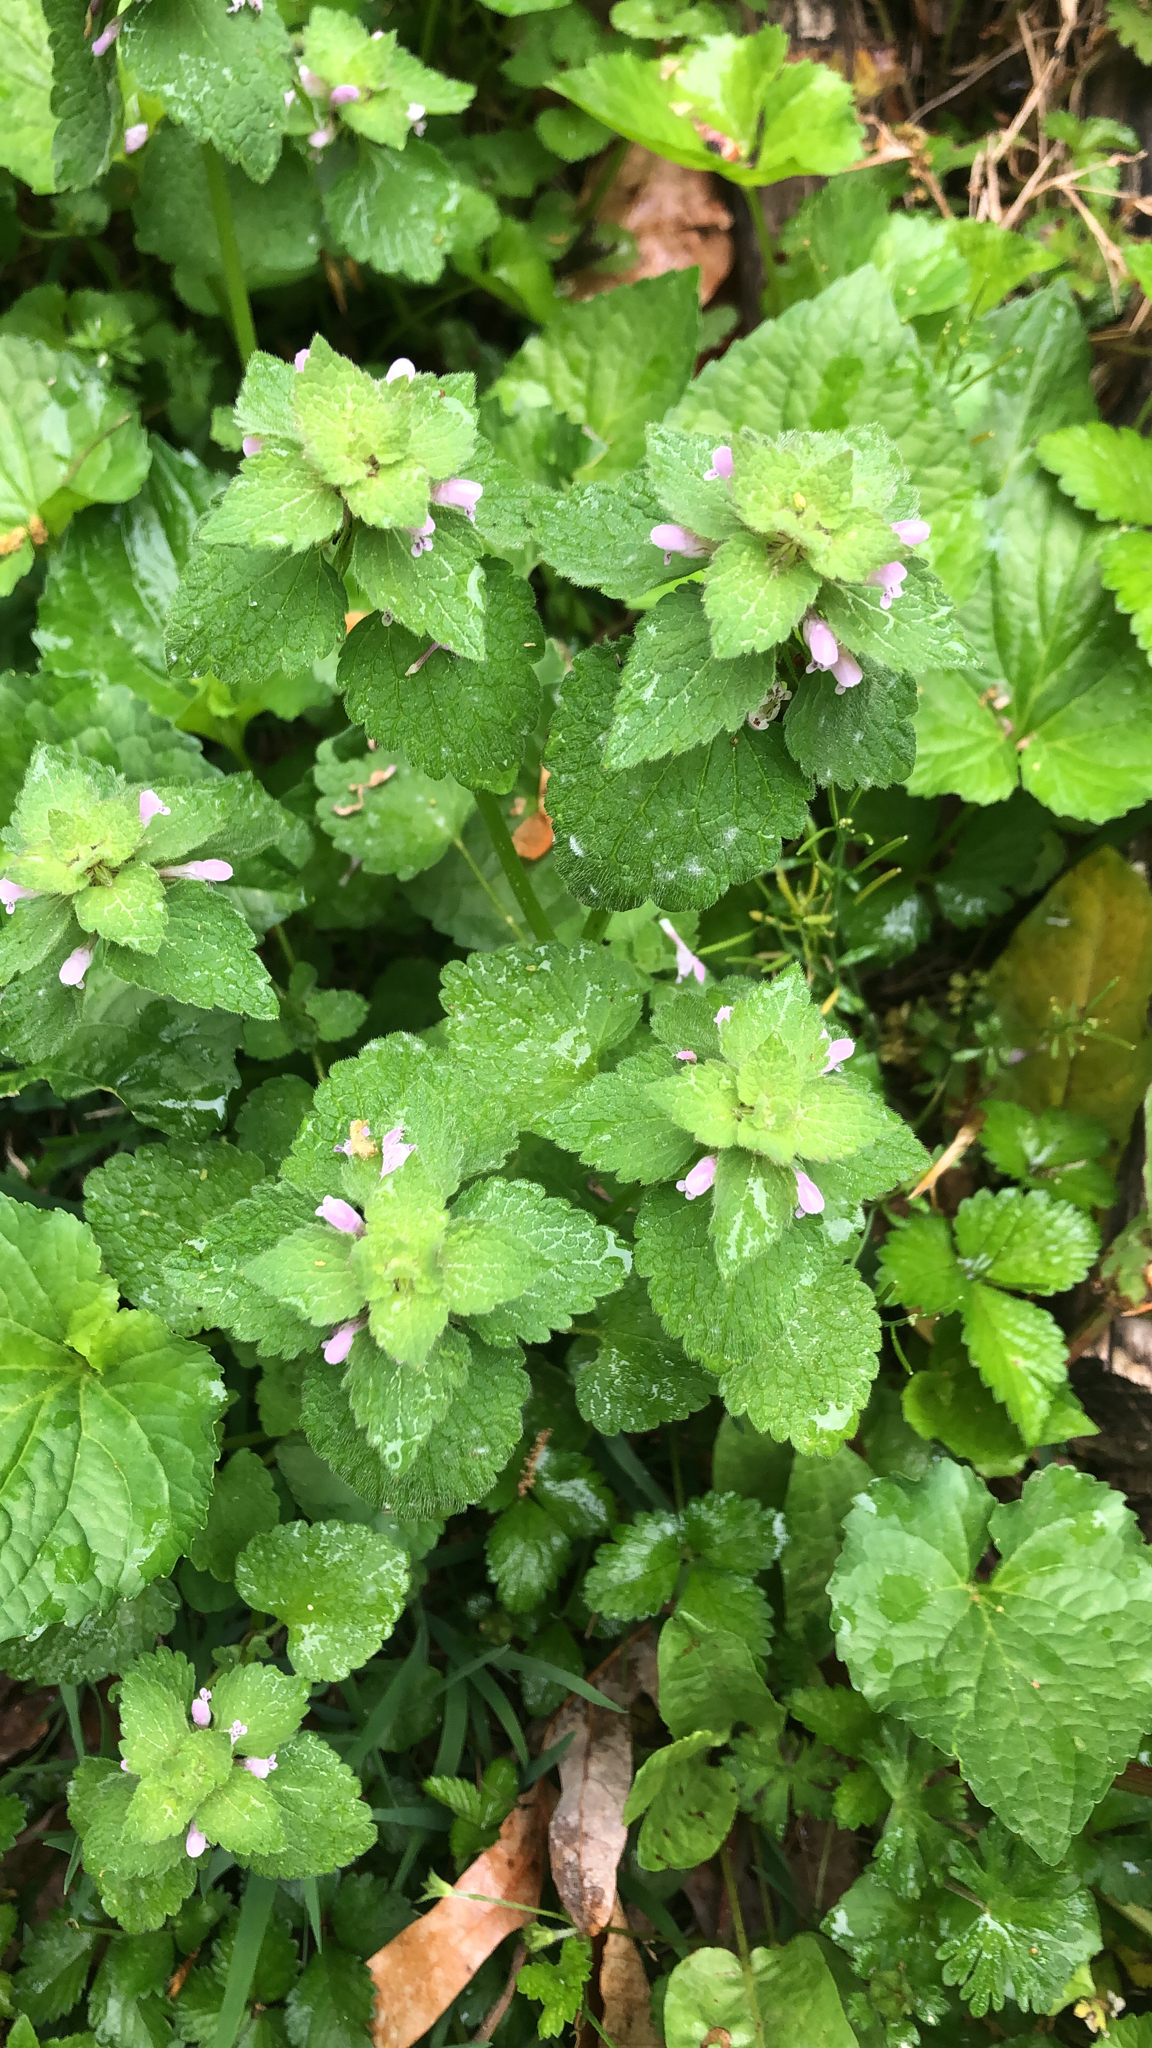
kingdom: Plantae
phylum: Tracheophyta
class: Magnoliopsida
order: Lamiales
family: Lamiaceae
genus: Lamium
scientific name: Lamium purpureum
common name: Red dead-nettle
